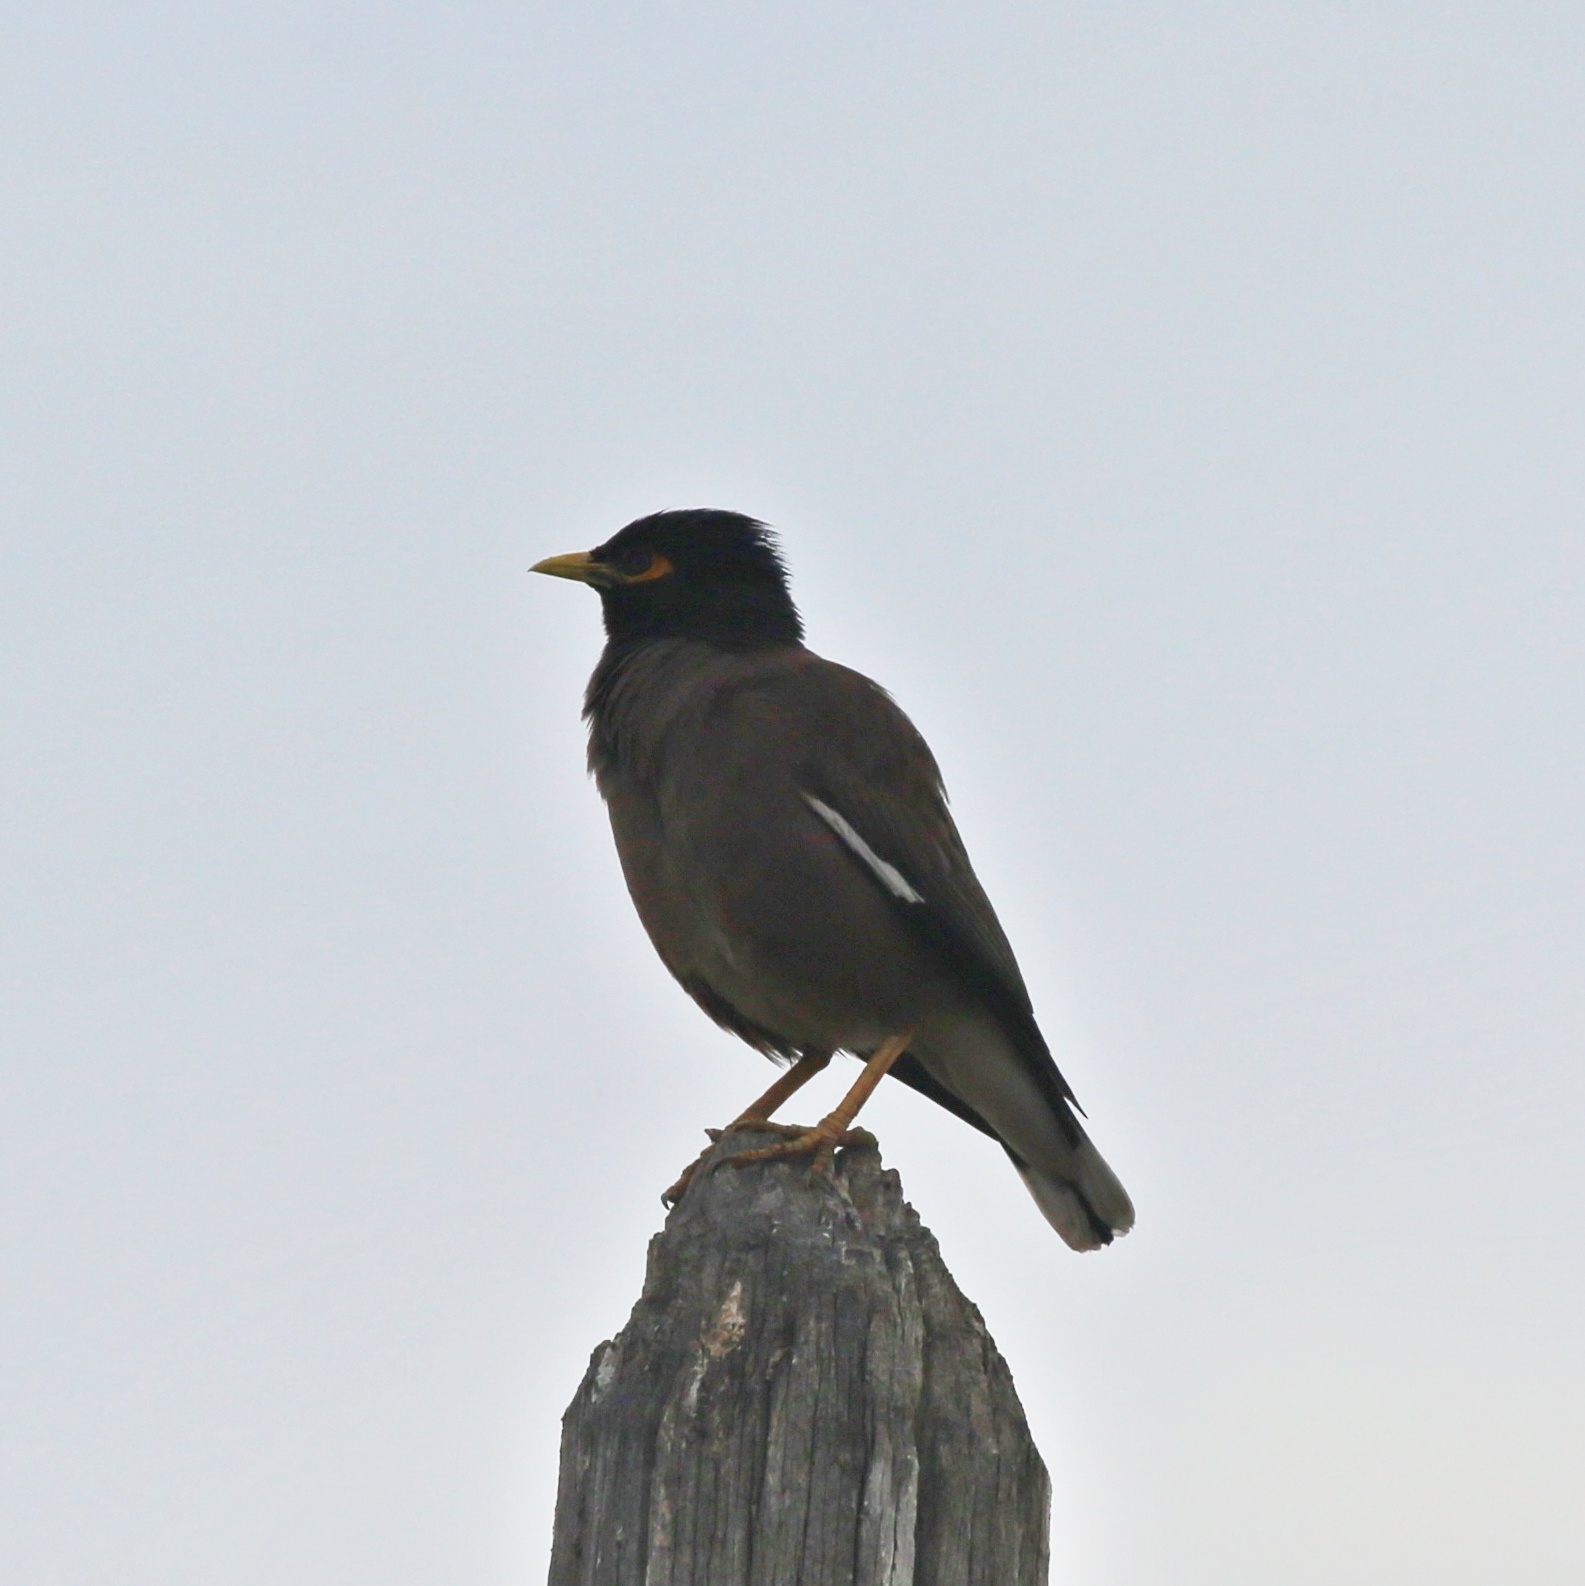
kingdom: Animalia
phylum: Chordata
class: Aves
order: Passeriformes
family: Sturnidae
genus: Acridotheres
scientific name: Acridotheres tristis
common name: Common myna
